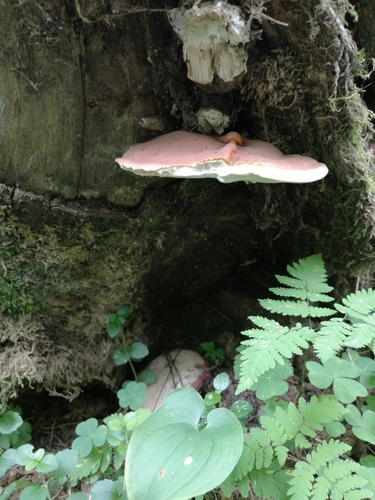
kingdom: Fungi
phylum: Basidiomycota
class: Agaricomycetes
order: Polyporales
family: Polyporaceae
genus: Ganoderma
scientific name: Ganoderma
